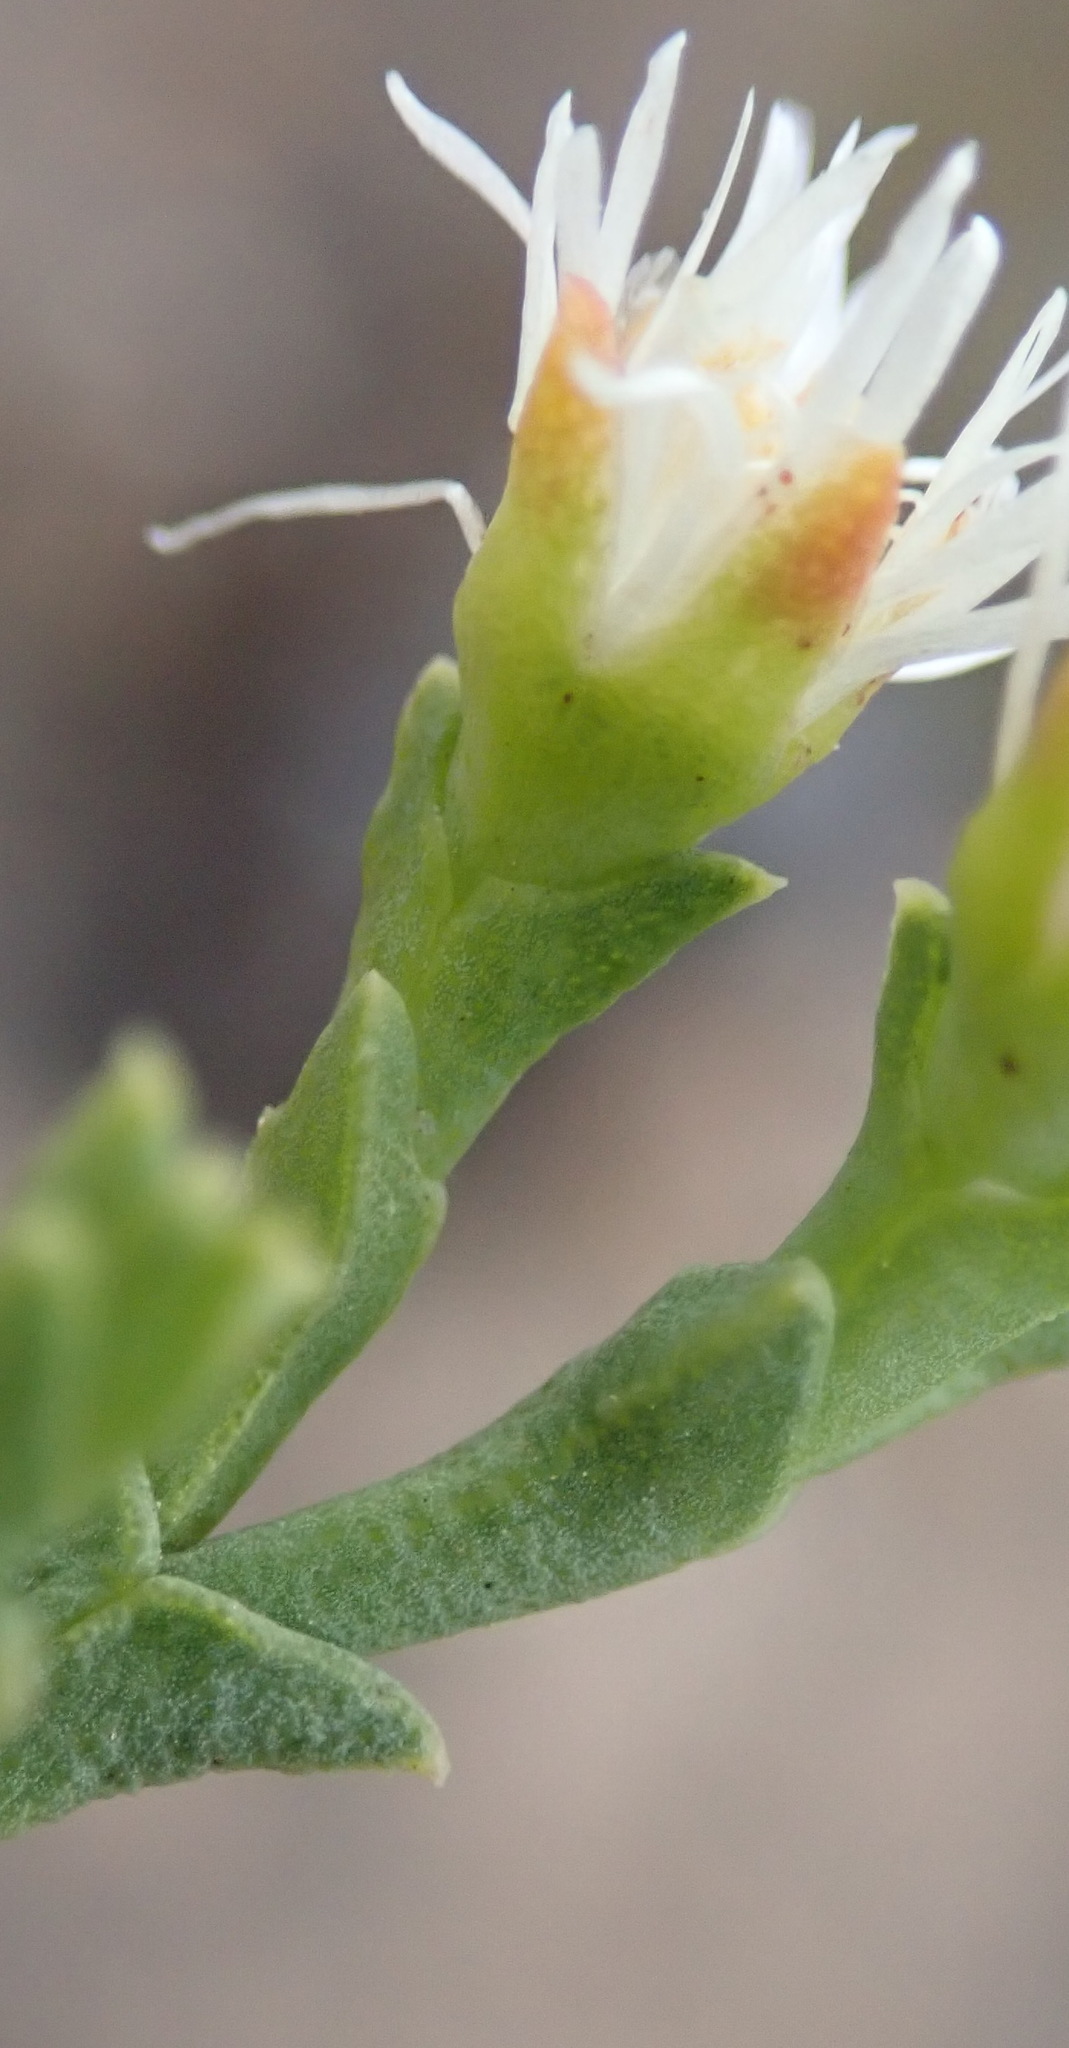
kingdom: Plantae
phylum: Tracheophyta
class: Magnoliopsida
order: Caryophyllales
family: Aizoaceae
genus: Ruschia
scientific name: Ruschia tenella
